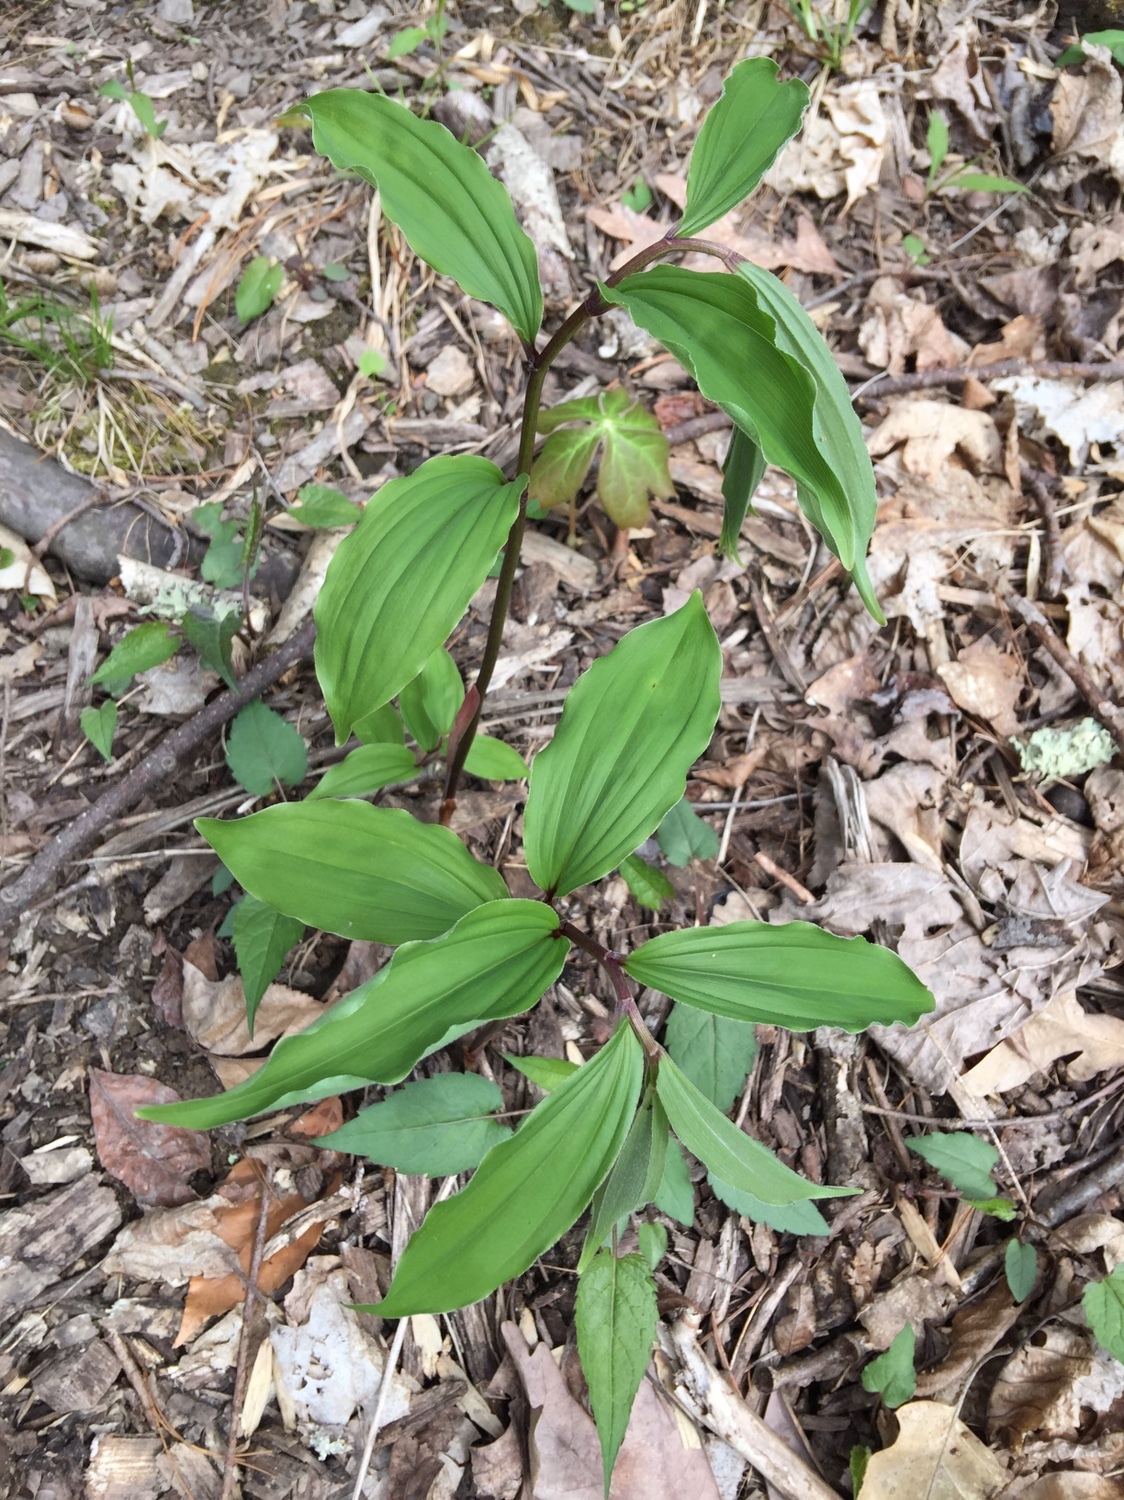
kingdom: Plantae
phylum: Tracheophyta
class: Liliopsida
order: Asparagales
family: Asparagaceae
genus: Maianthemum
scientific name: Maianthemum racemosum
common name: False spikenard
